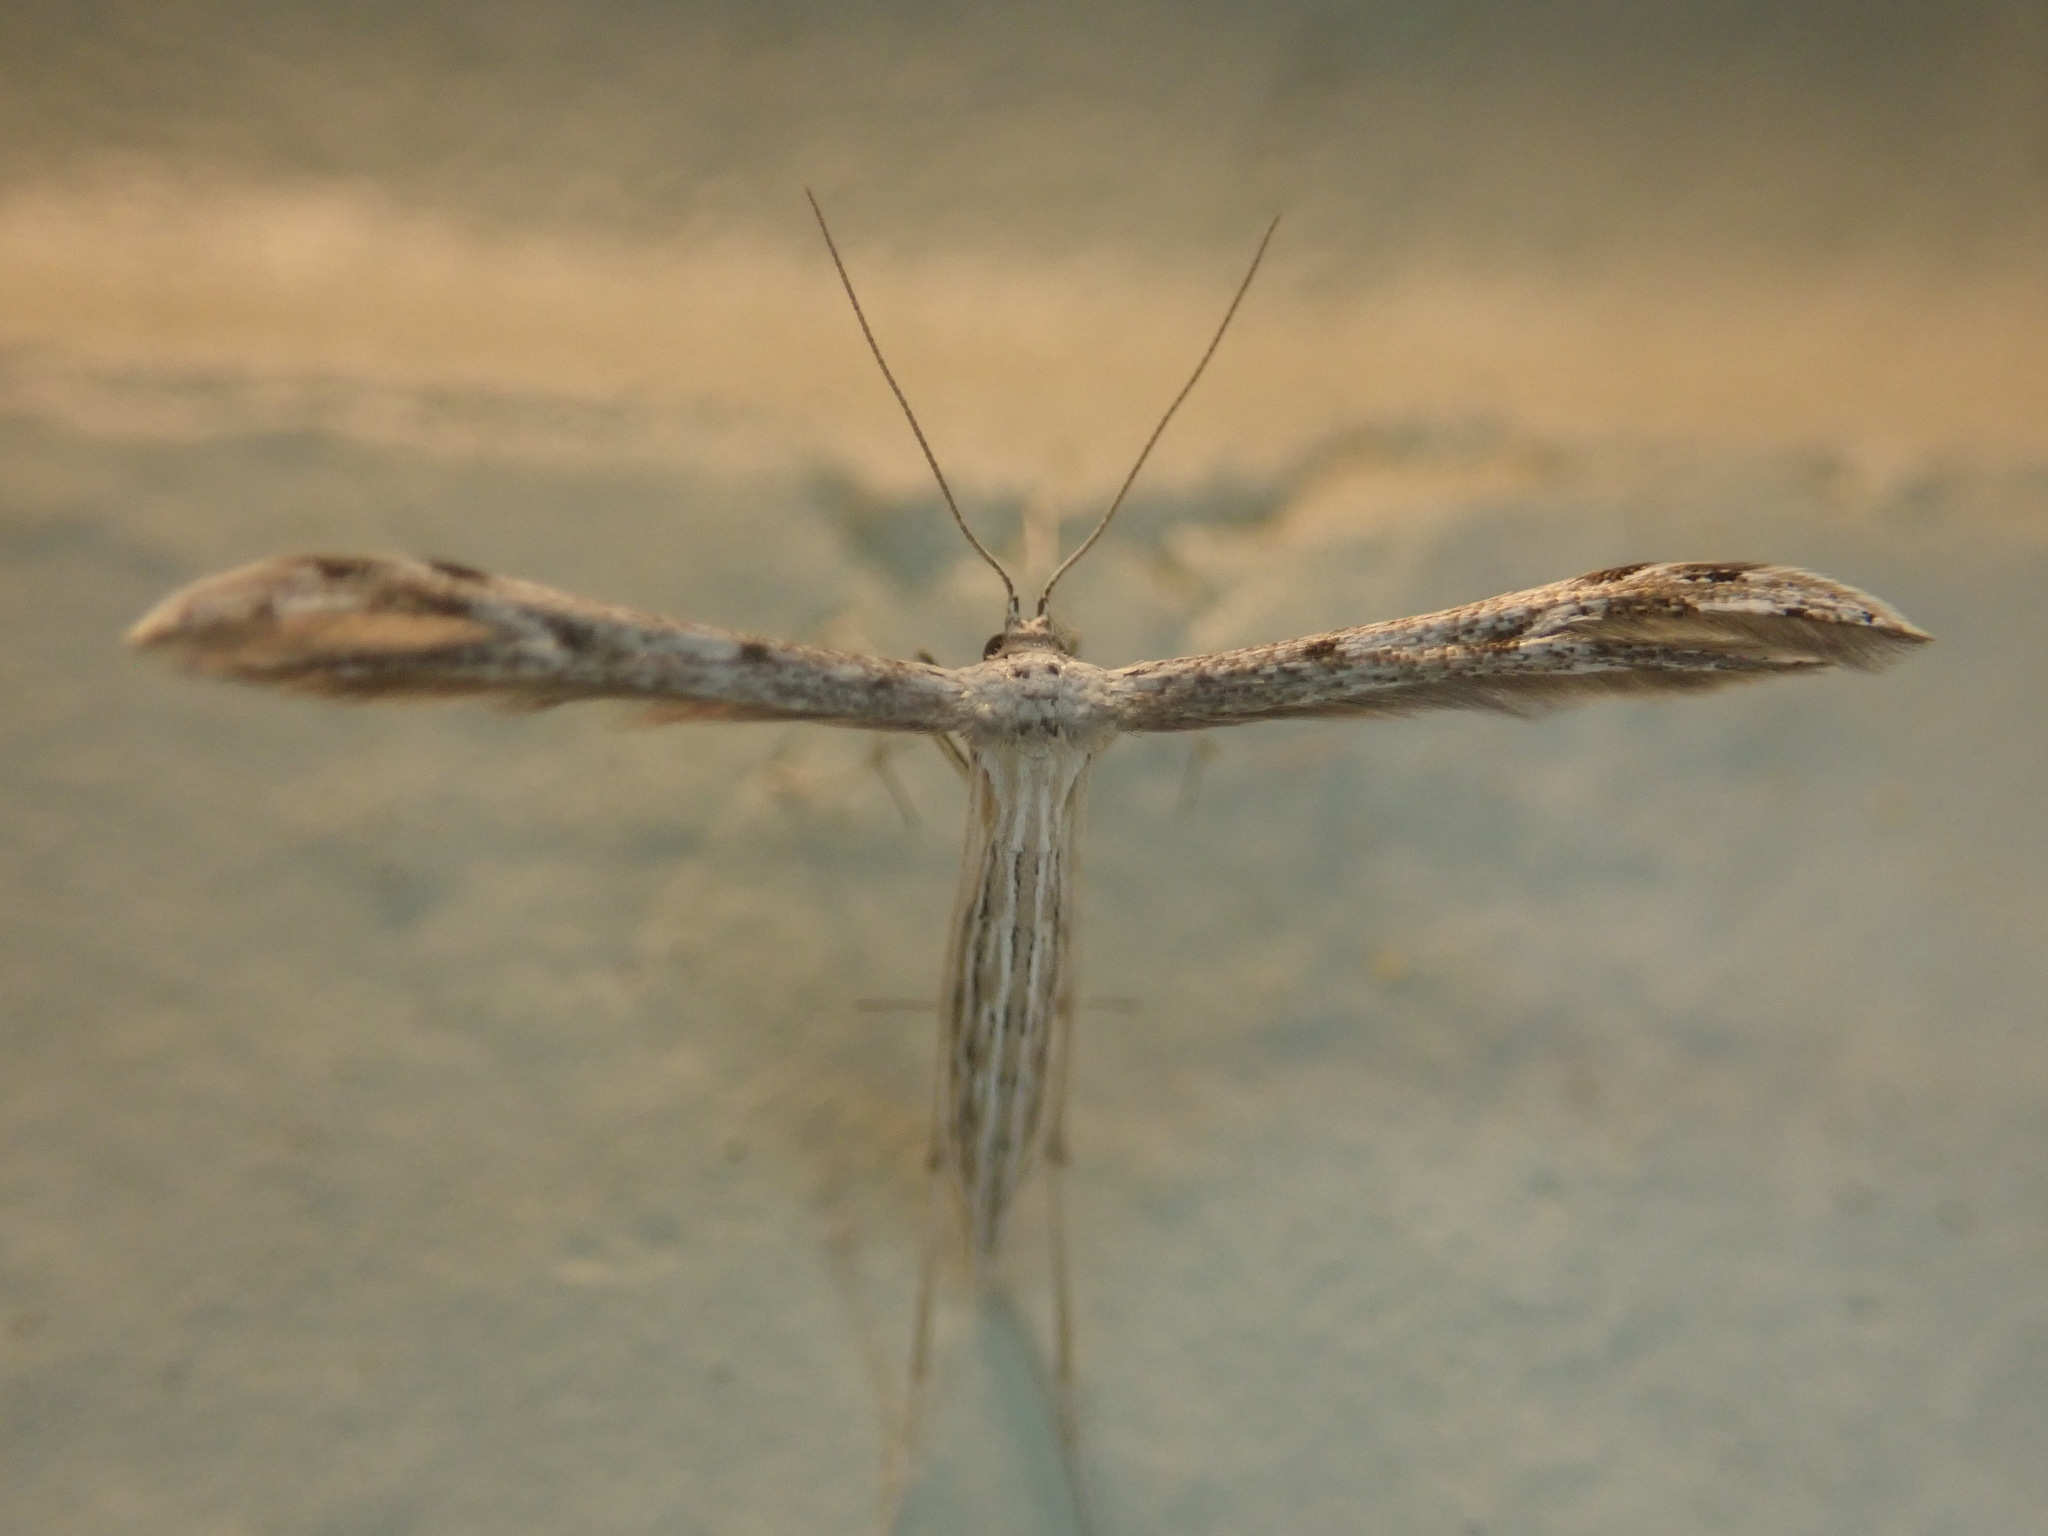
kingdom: Animalia
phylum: Arthropoda
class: Insecta
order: Lepidoptera
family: Pterophoridae
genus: Pselnophorus
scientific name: Pselnophorus belfragei
